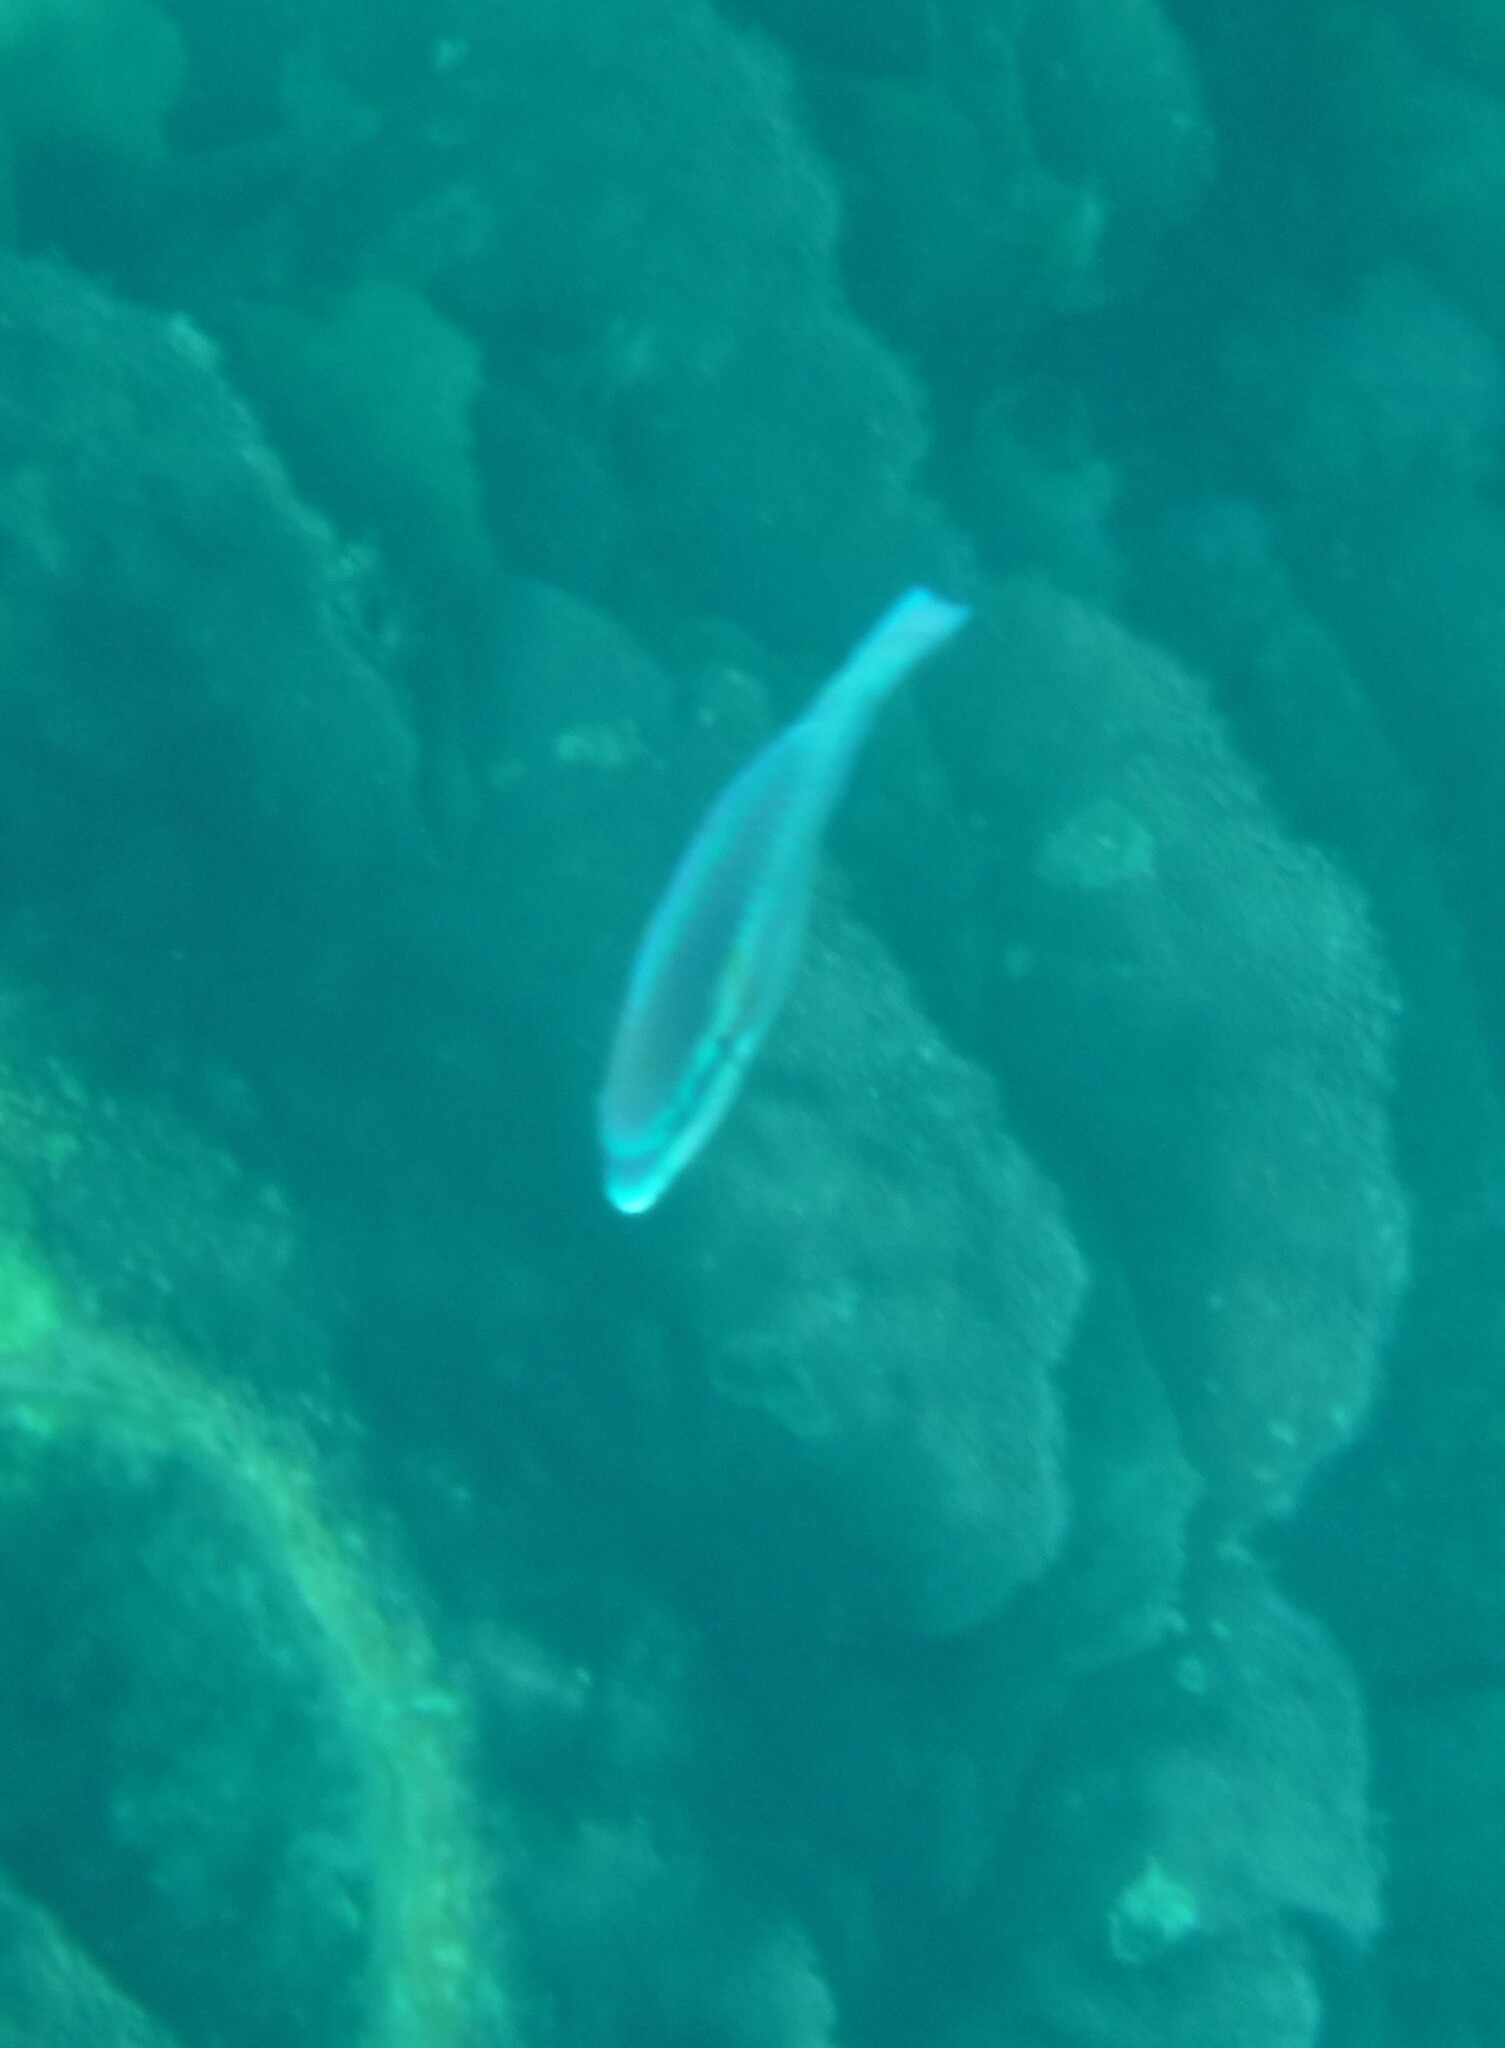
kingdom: Animalia
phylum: Chordata
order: Perciformes
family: Scaridae
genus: Scarus
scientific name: Scarus iseri
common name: Striped parrotfish
